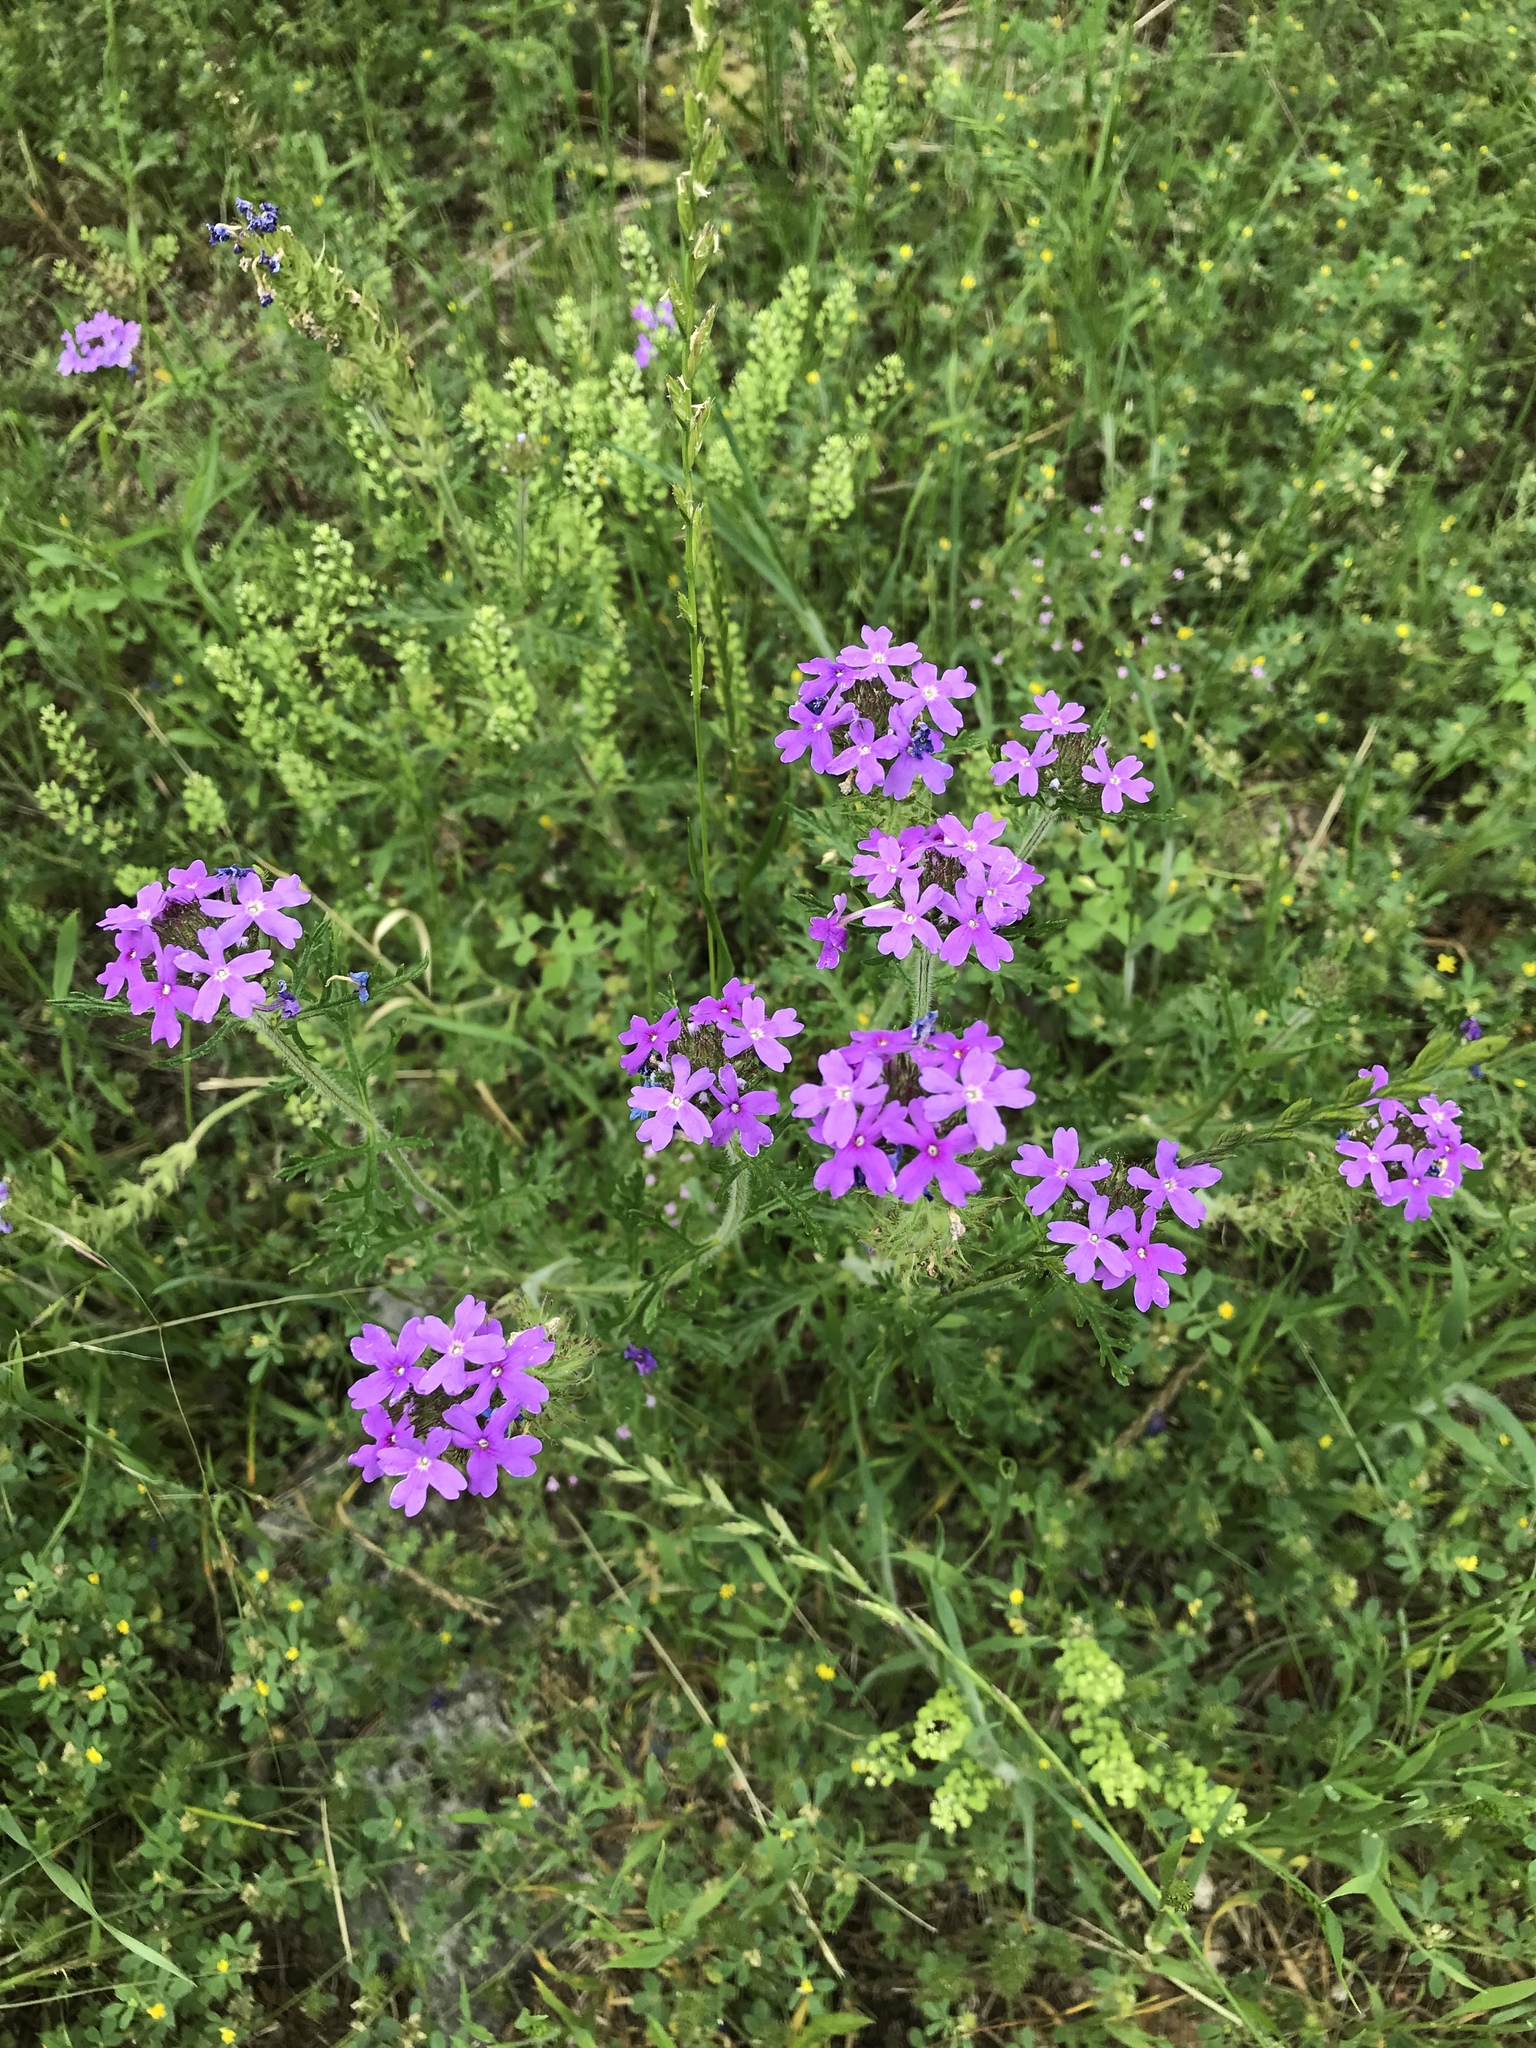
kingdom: Plantae
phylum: Tracheophyta
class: Magnoliopsida
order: Lamiales
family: Verbenaceae
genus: Verbena
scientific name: Verbena bipinnatifida
